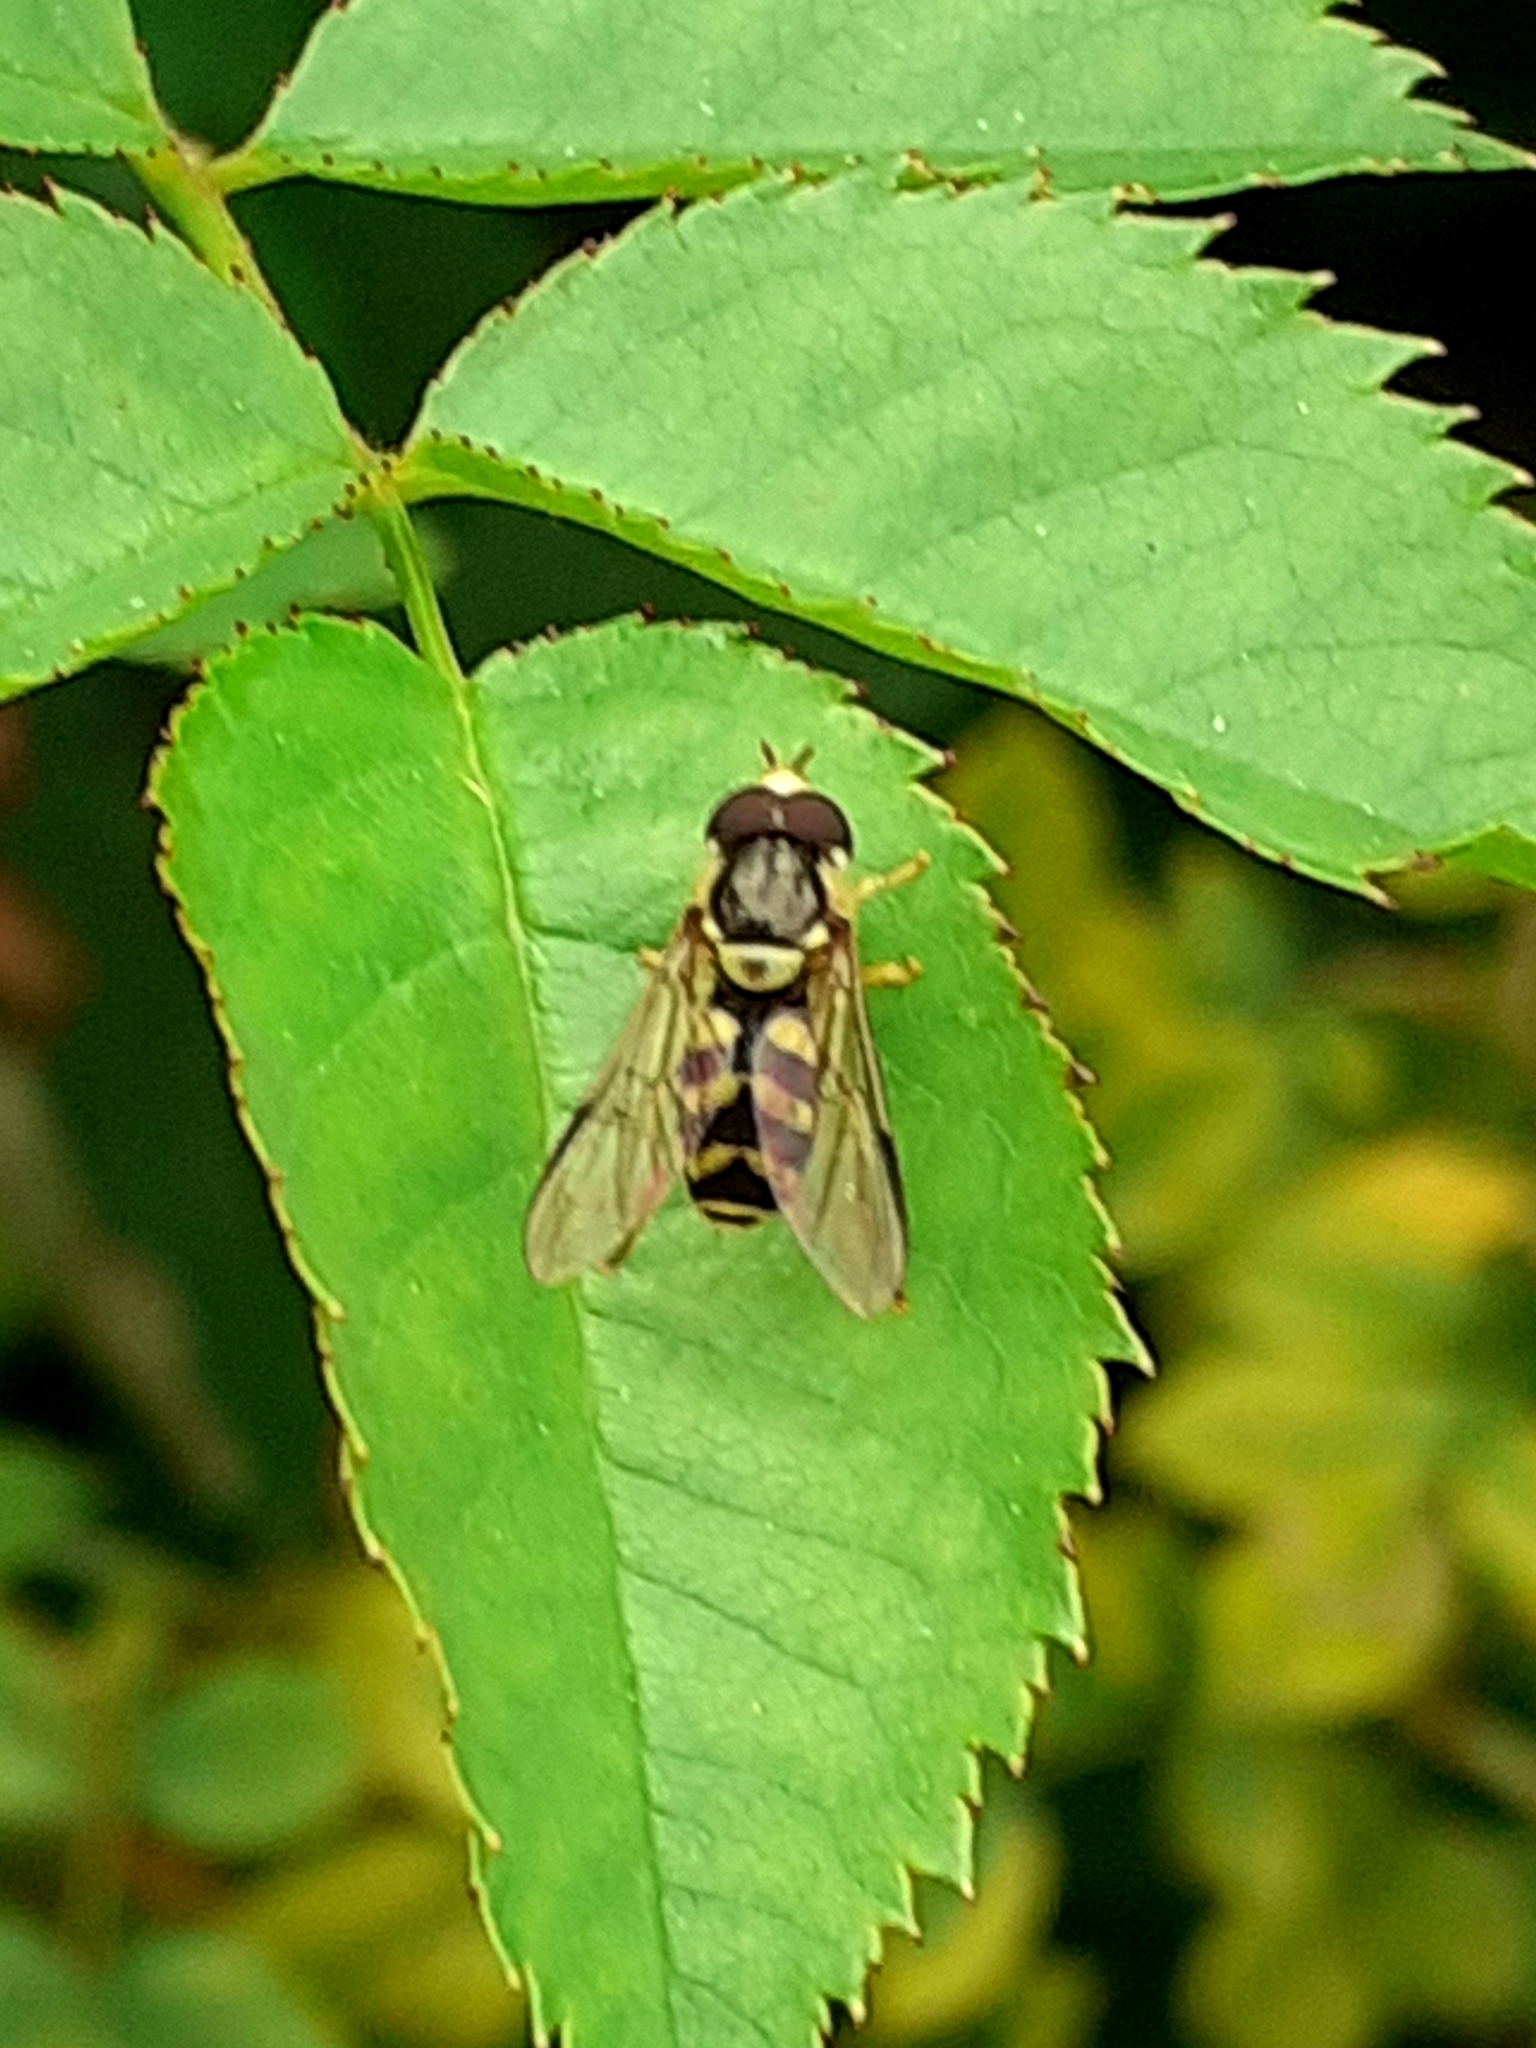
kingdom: Animalia
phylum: Arthropoda
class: Insecta
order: Diptera
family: Syrphidae
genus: Dasysyrphus
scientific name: Dasysyrphus albostriatus
